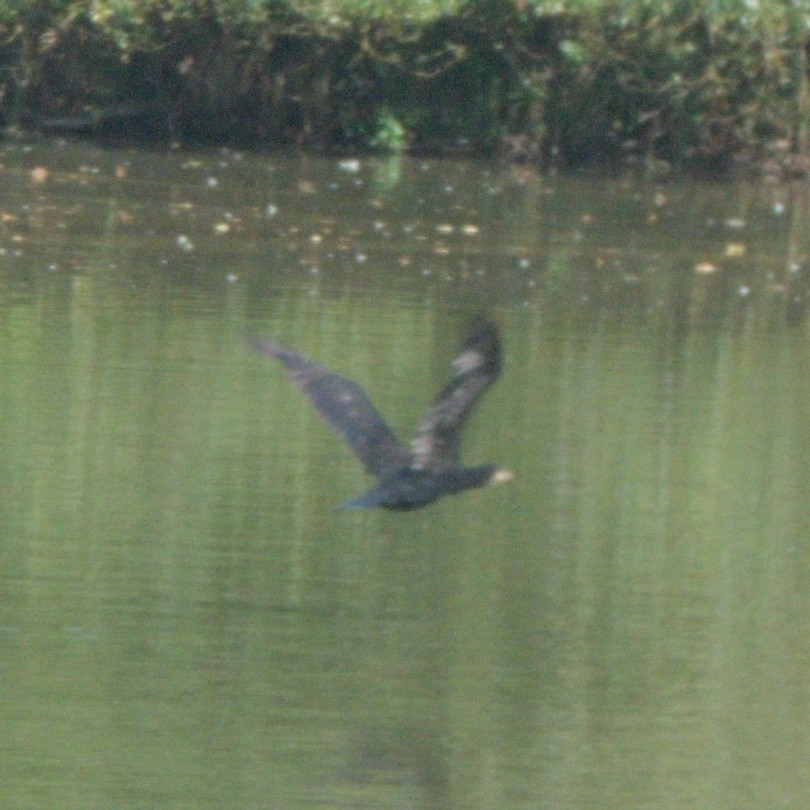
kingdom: Animalia
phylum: Chordata
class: Aves
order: Suliformes
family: Phalacrocoracidae
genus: Phalacrocorax
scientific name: Phalacrocorax carbo
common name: Great cormorant
